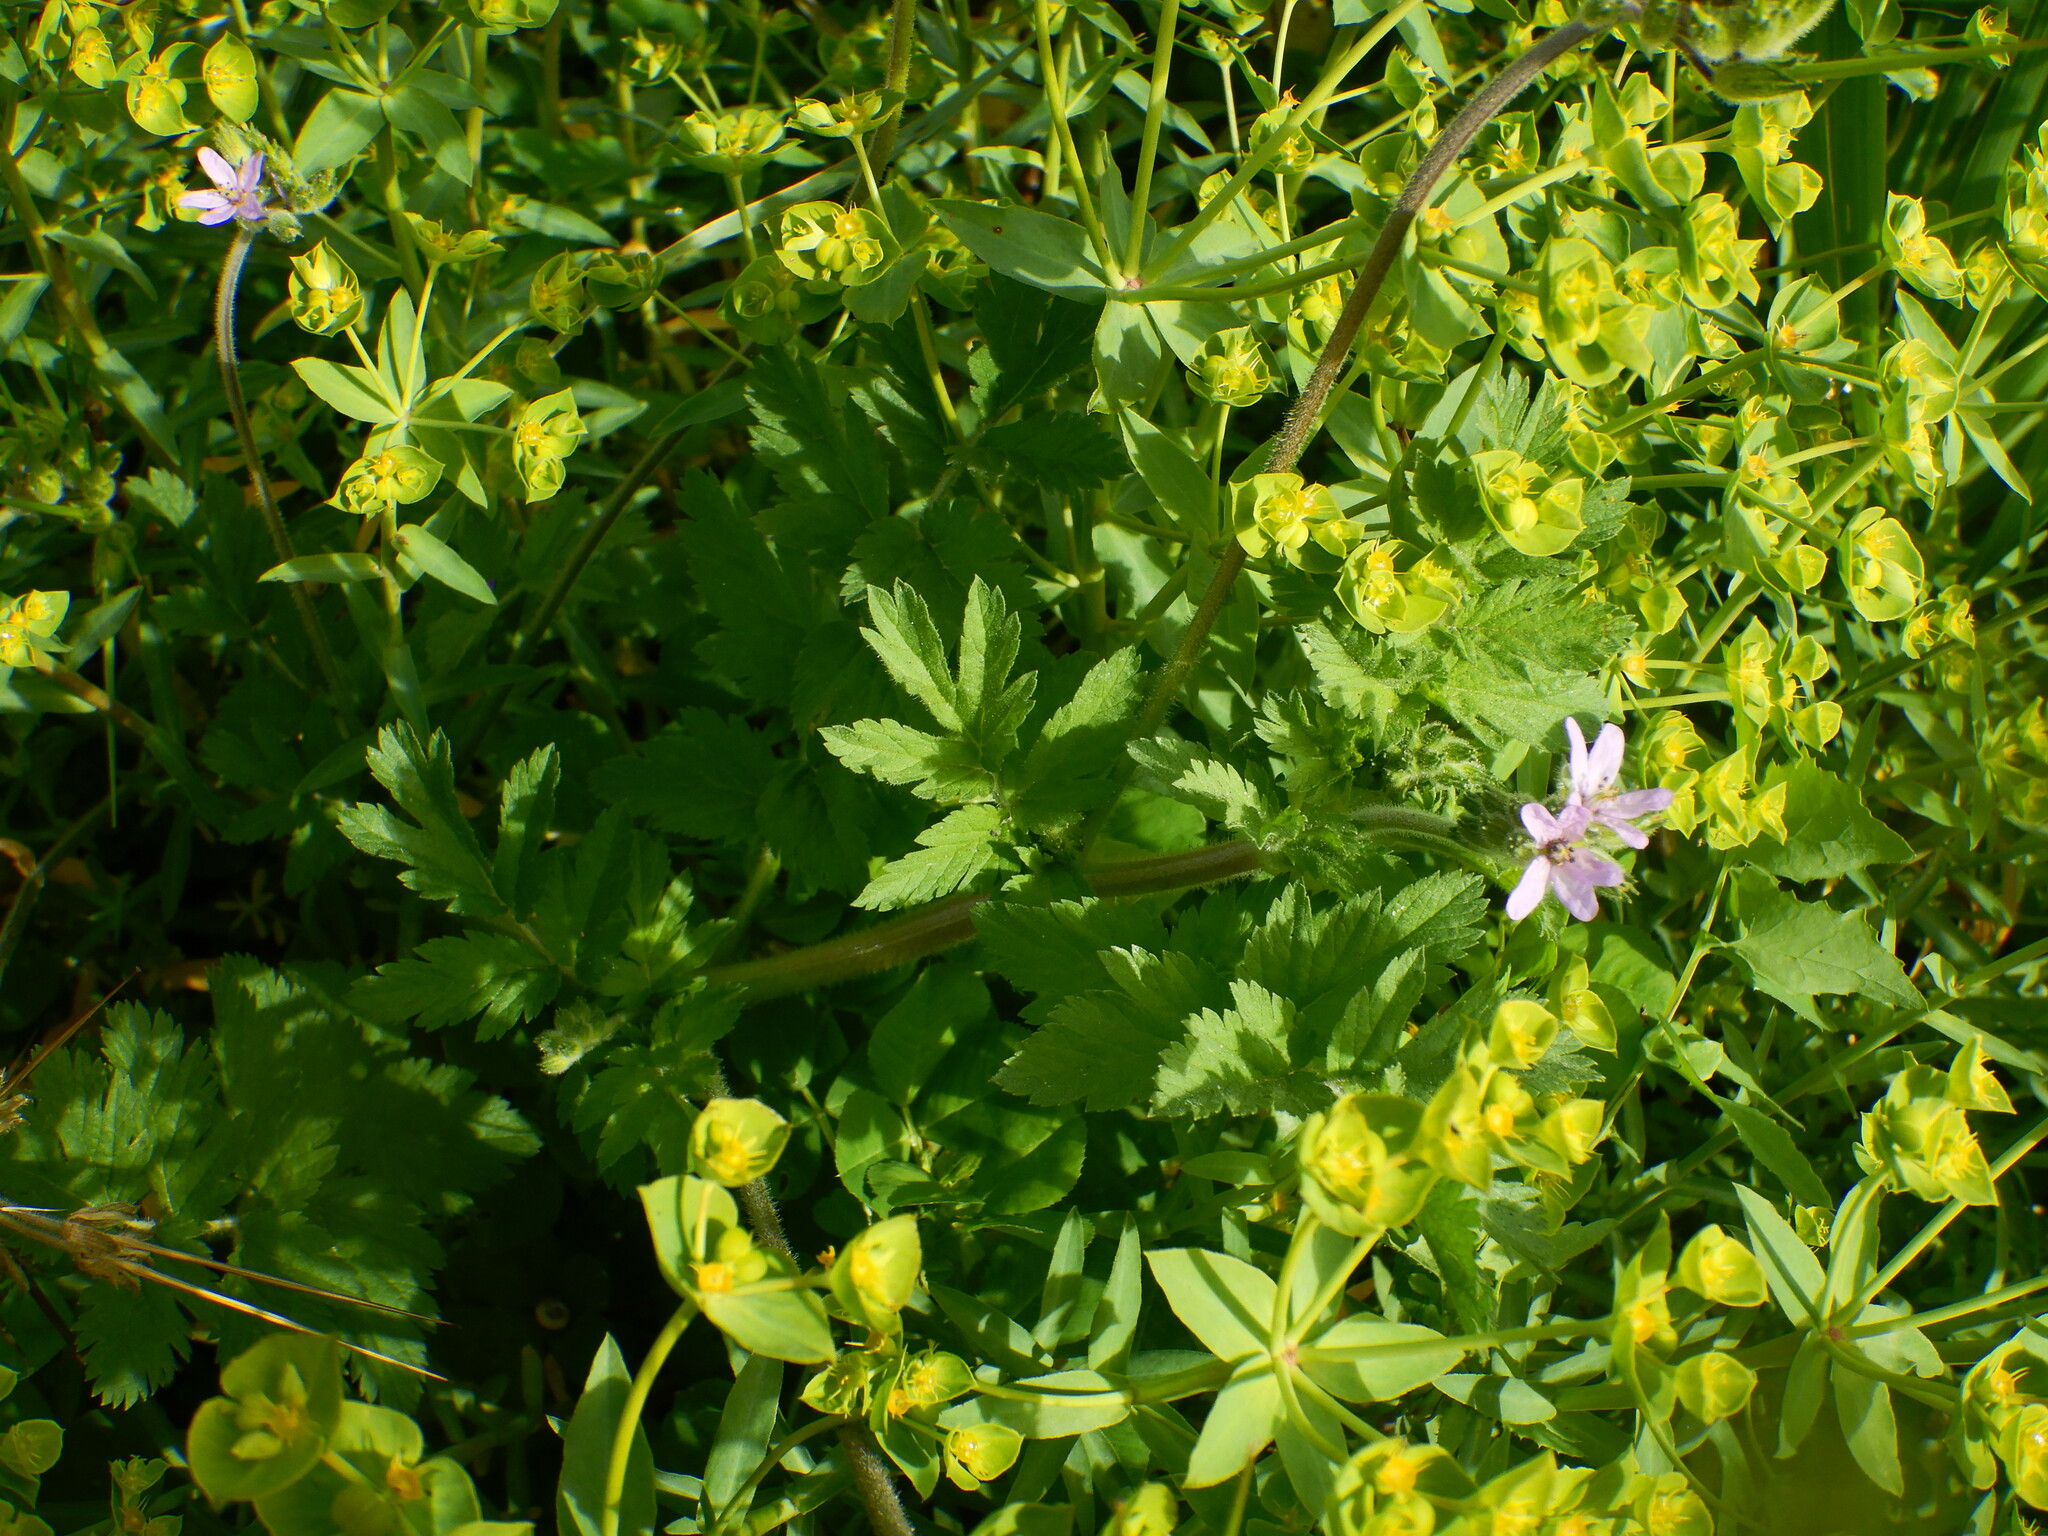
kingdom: Plantae
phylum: Tracheophyta
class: Magnoliopsida
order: Geraniales
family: Geraniaceae
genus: Erodium
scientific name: Erodium moschatum
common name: Musk stork's-bill
